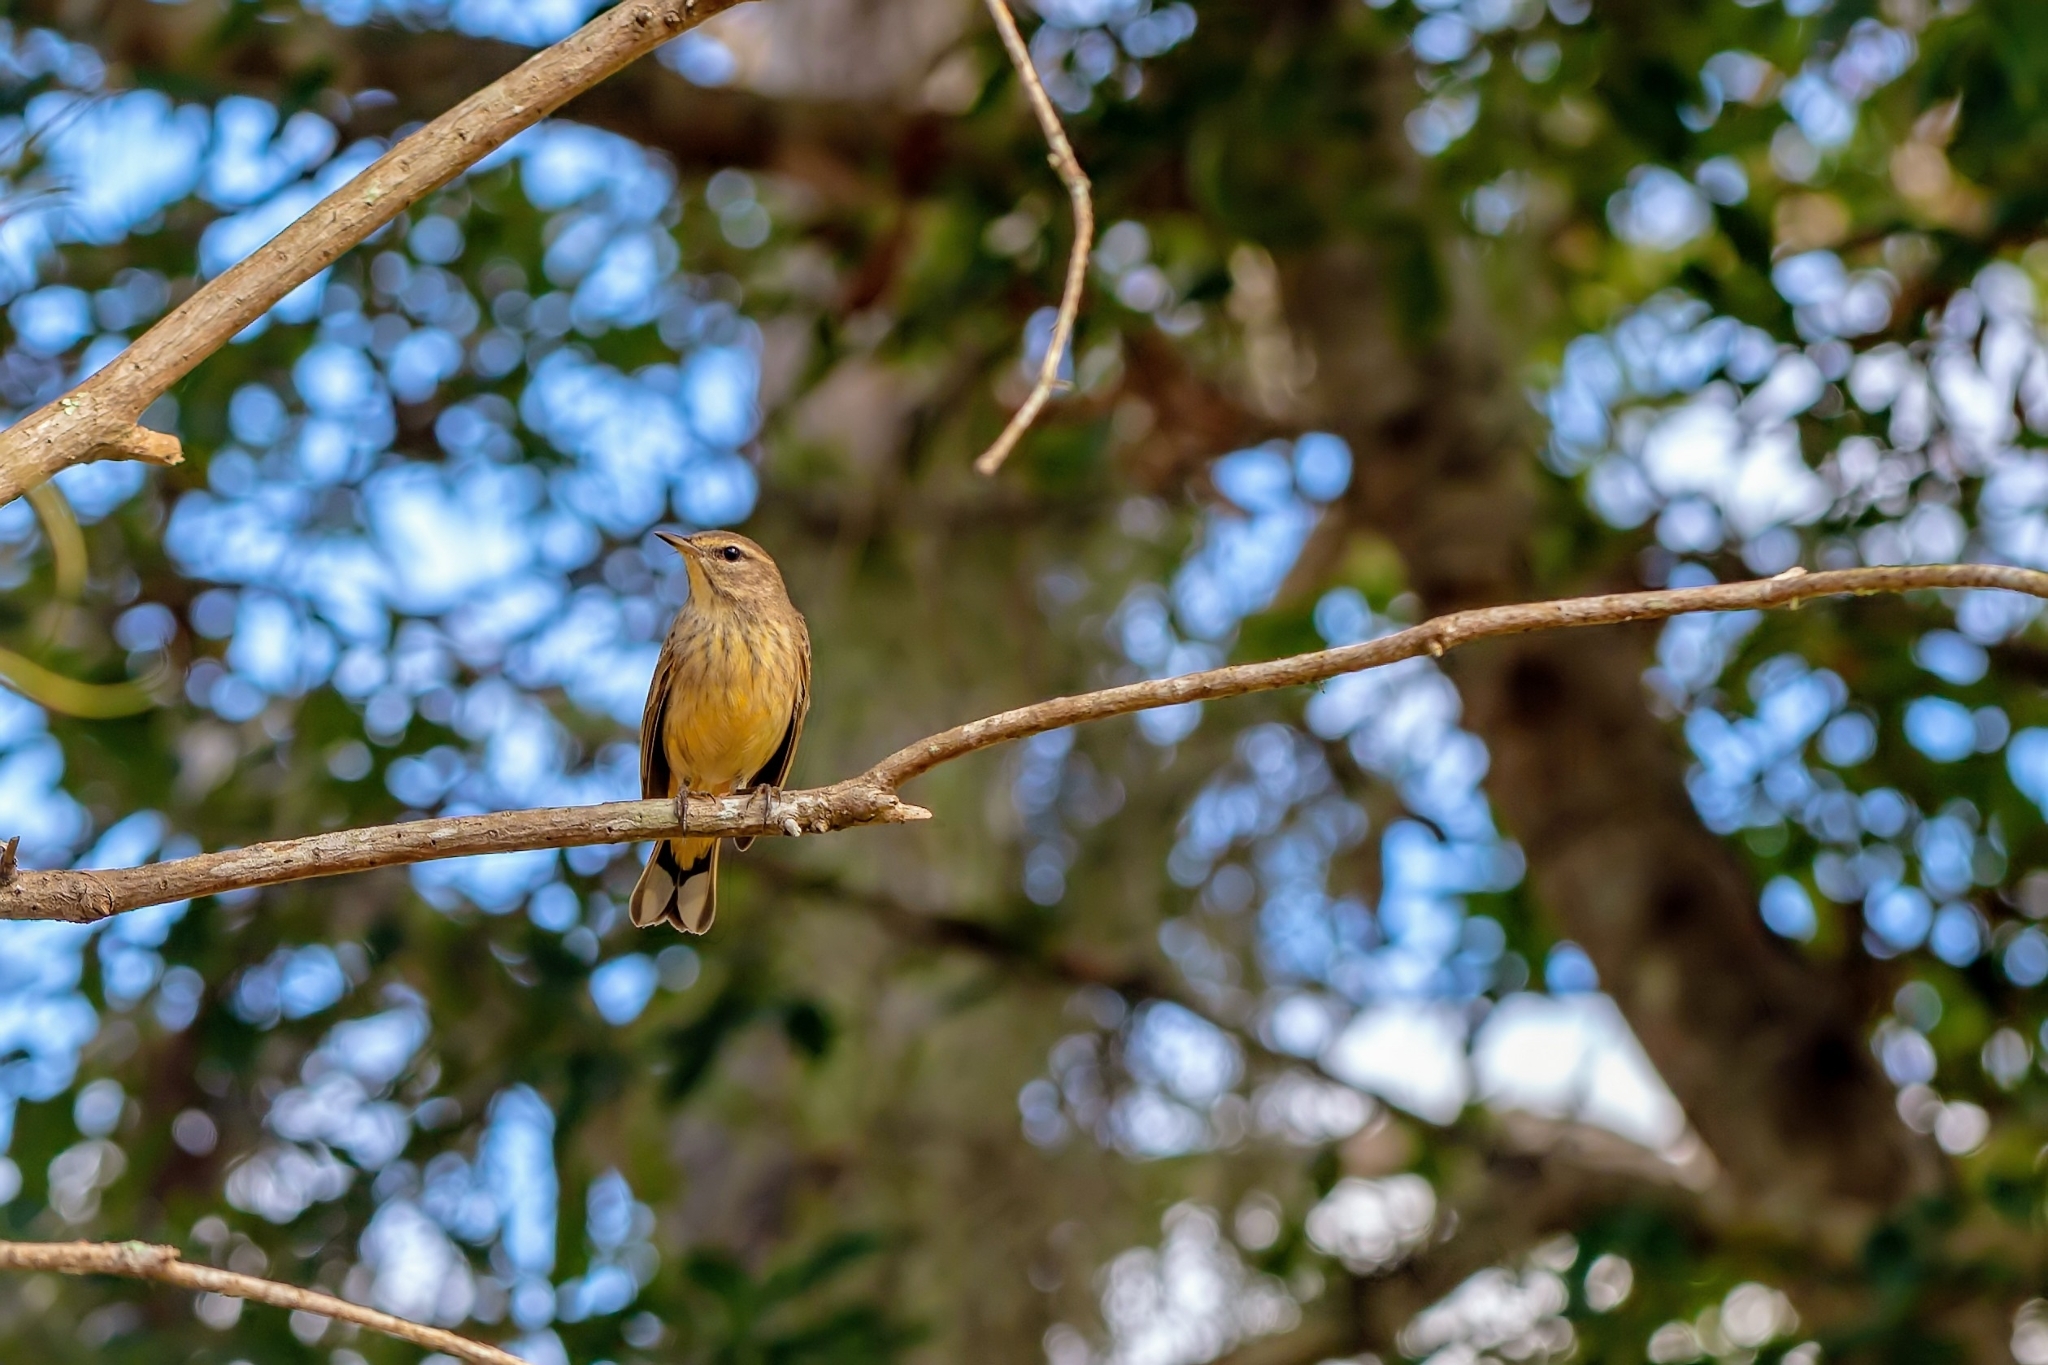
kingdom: Animalia
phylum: Chordata
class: Aves
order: Passeriformes
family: Parulidae
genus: Setophaga
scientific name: Setophaga palmarum
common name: Palm warbler
